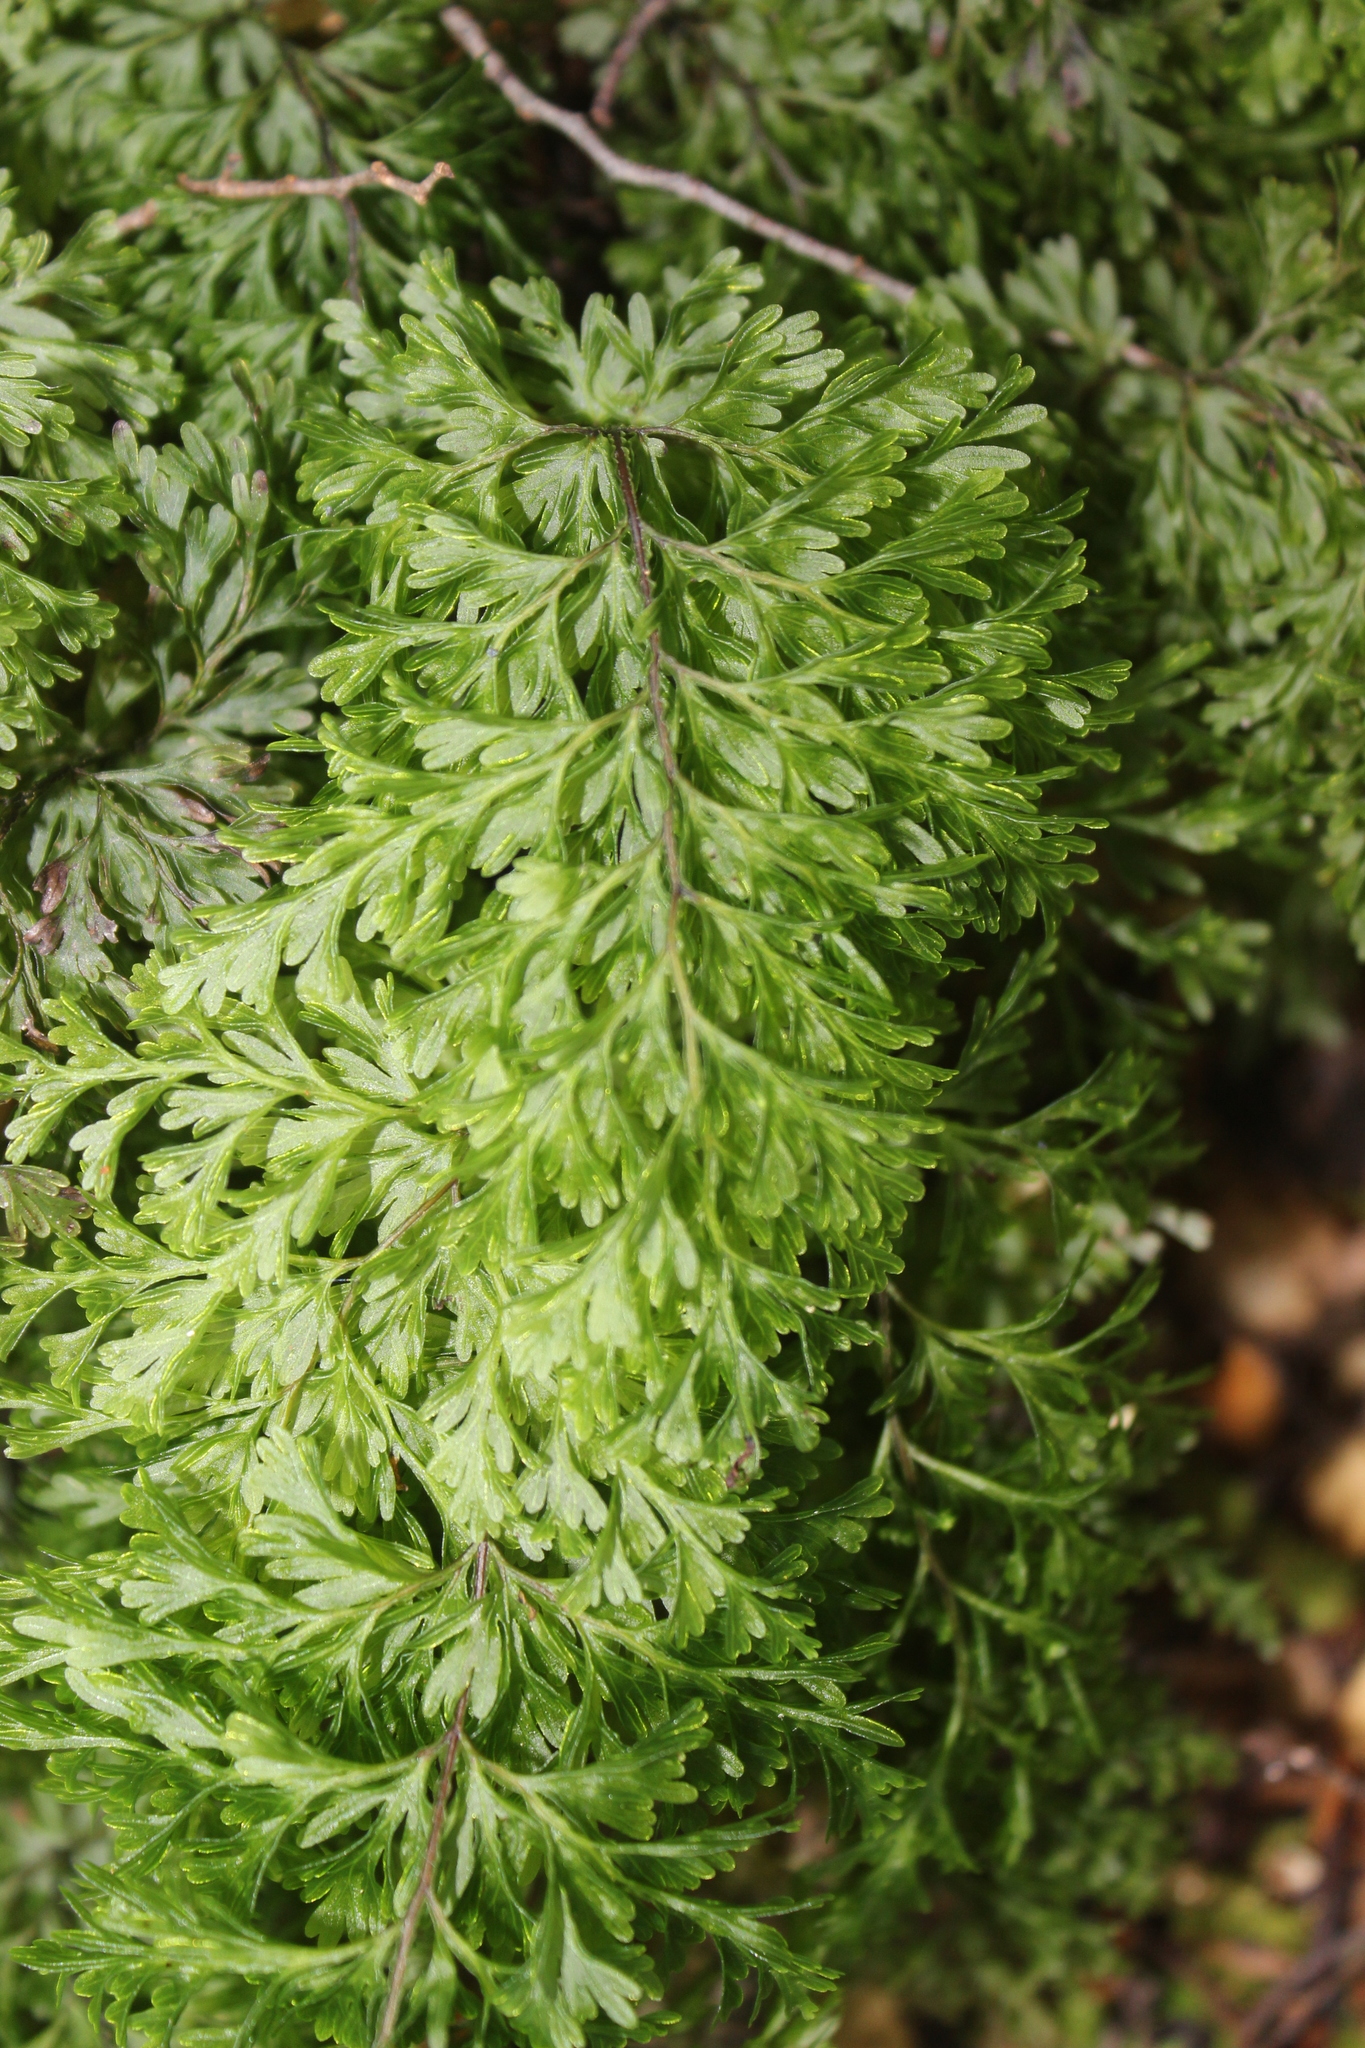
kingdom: Plantae
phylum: Tracheophyta
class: Polypodiopsida
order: Hymenophyllales
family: Hymenophyllaceae
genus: Hymenophyllum
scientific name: Hymenophyllum demissum
